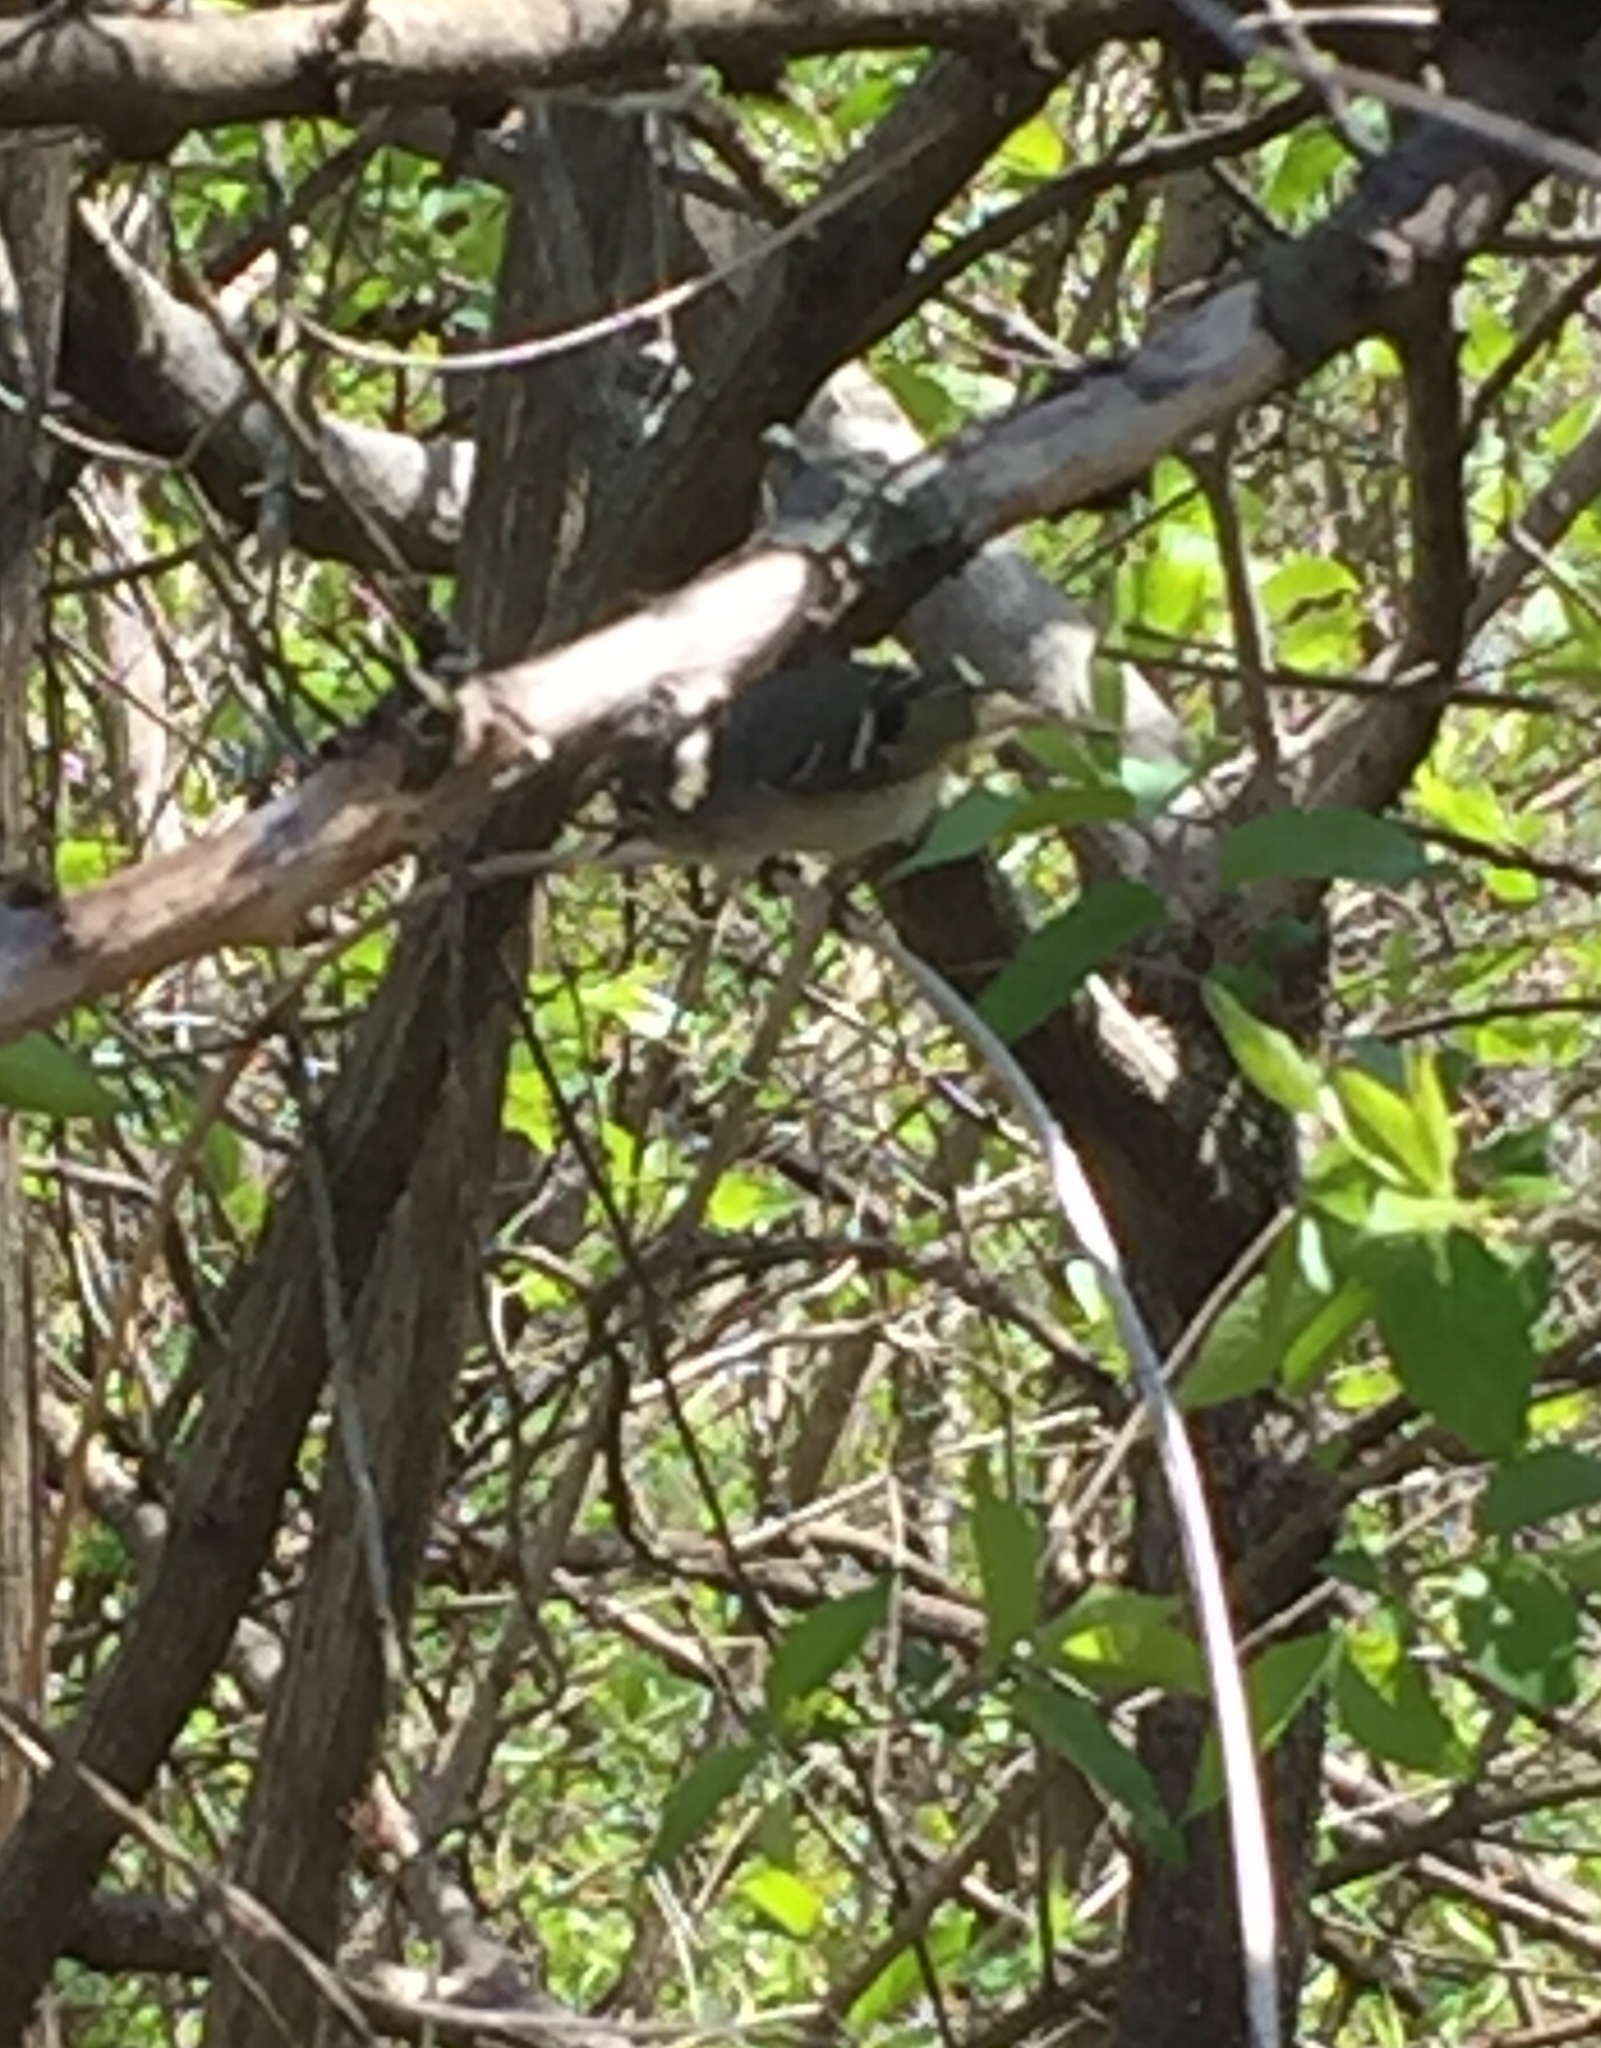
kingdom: Animalia
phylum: Chordata
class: Aves
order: Passeriformes
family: Regulidae
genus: Regulus
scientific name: Regulus calendula
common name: Ruby-crowned kinglet
